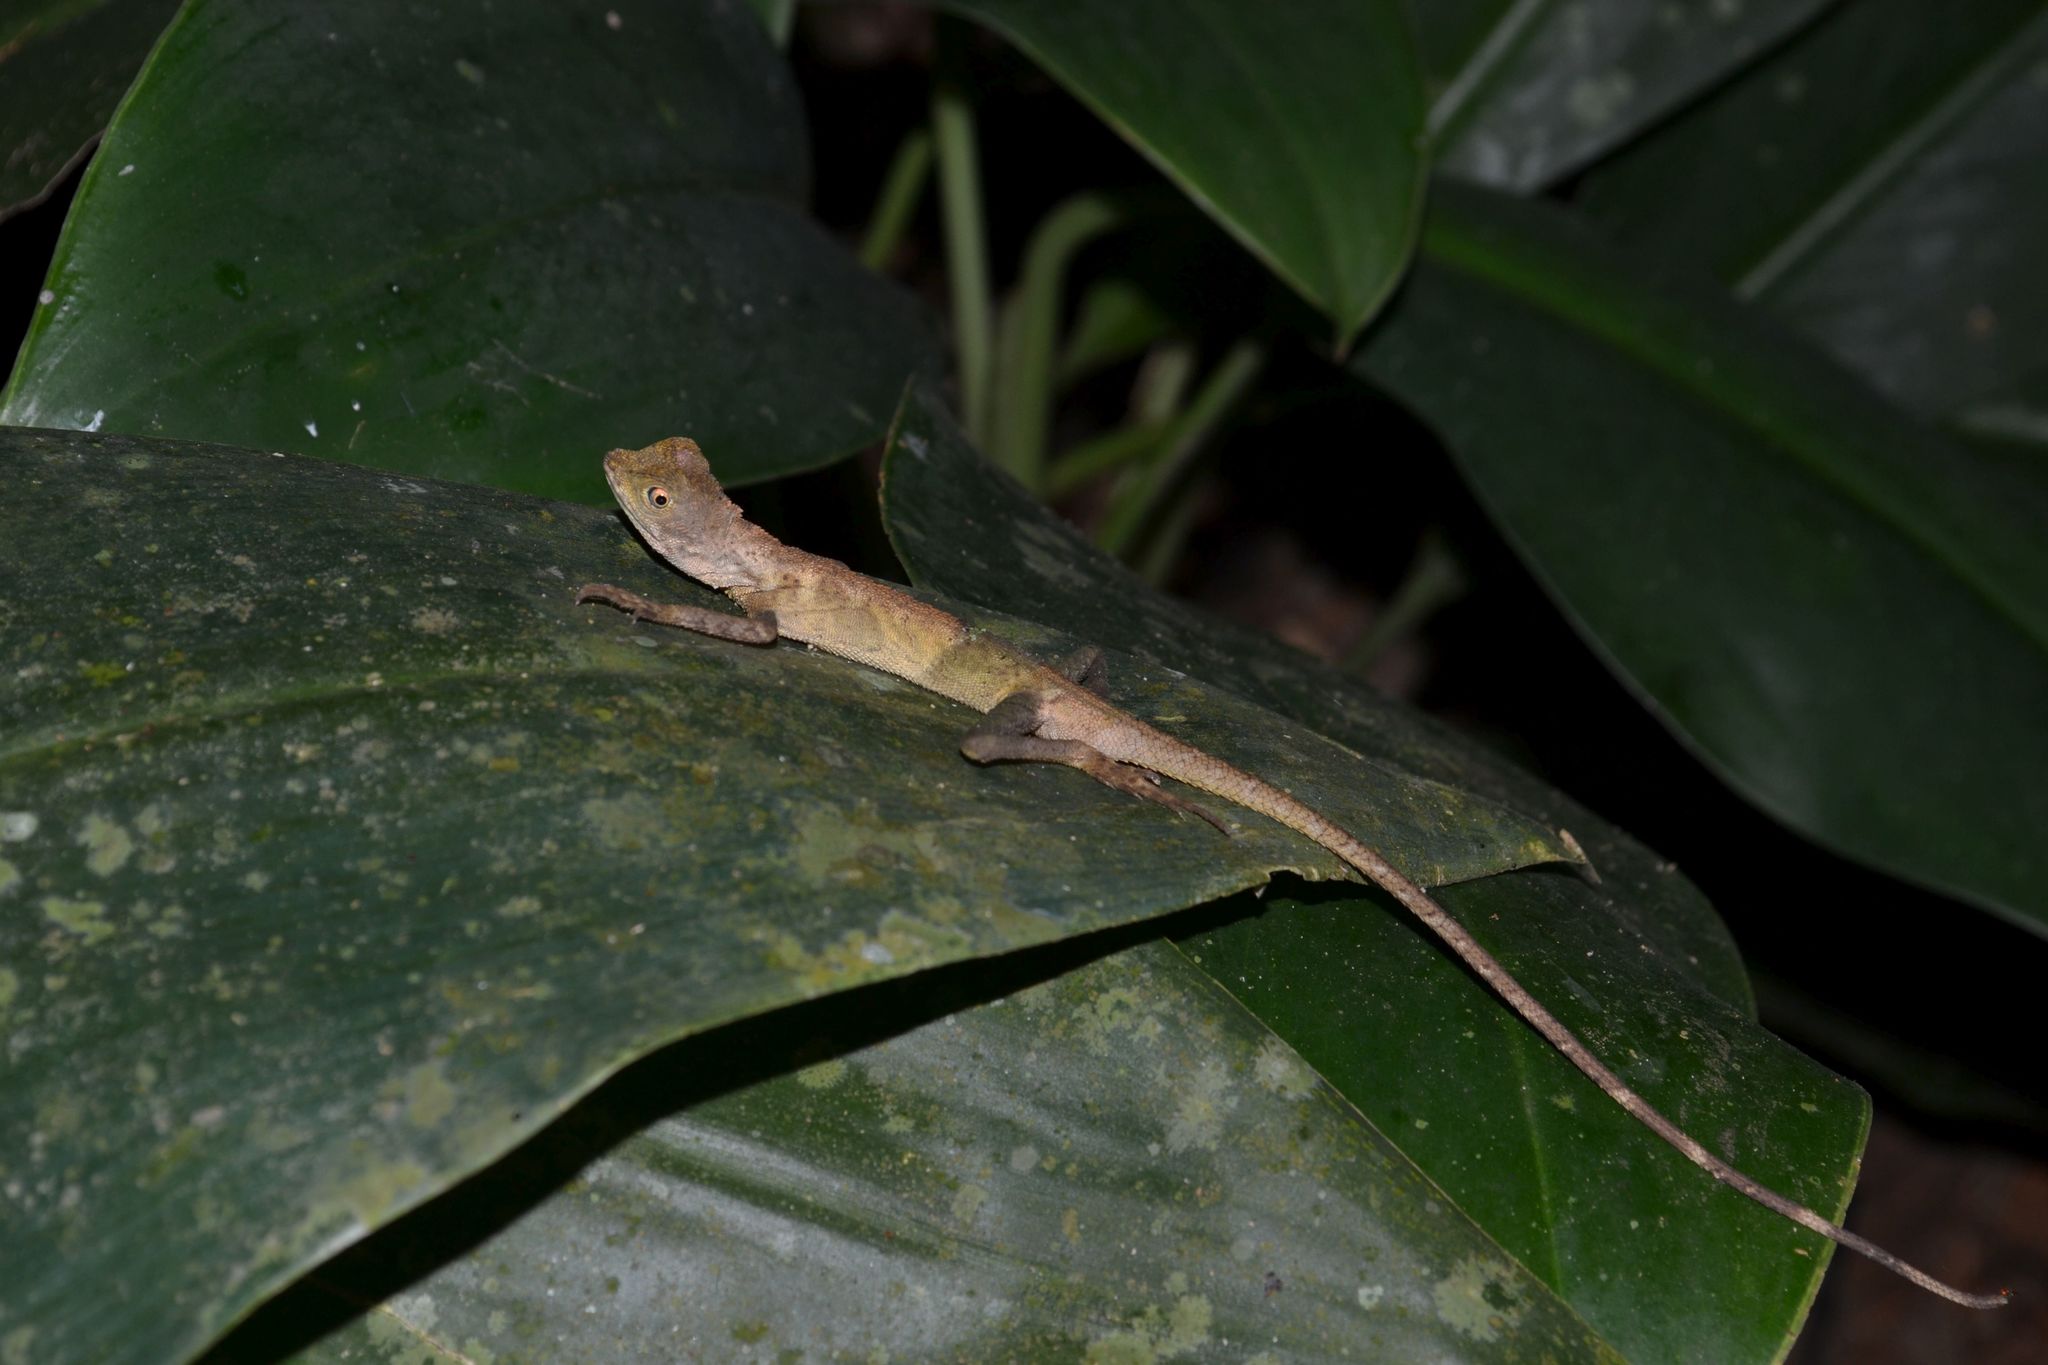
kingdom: Animalia
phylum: Chordata
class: Squamata
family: Agamidae
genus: Aphaniotis
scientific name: Aphaniotis fusca
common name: Dusky earless agama
